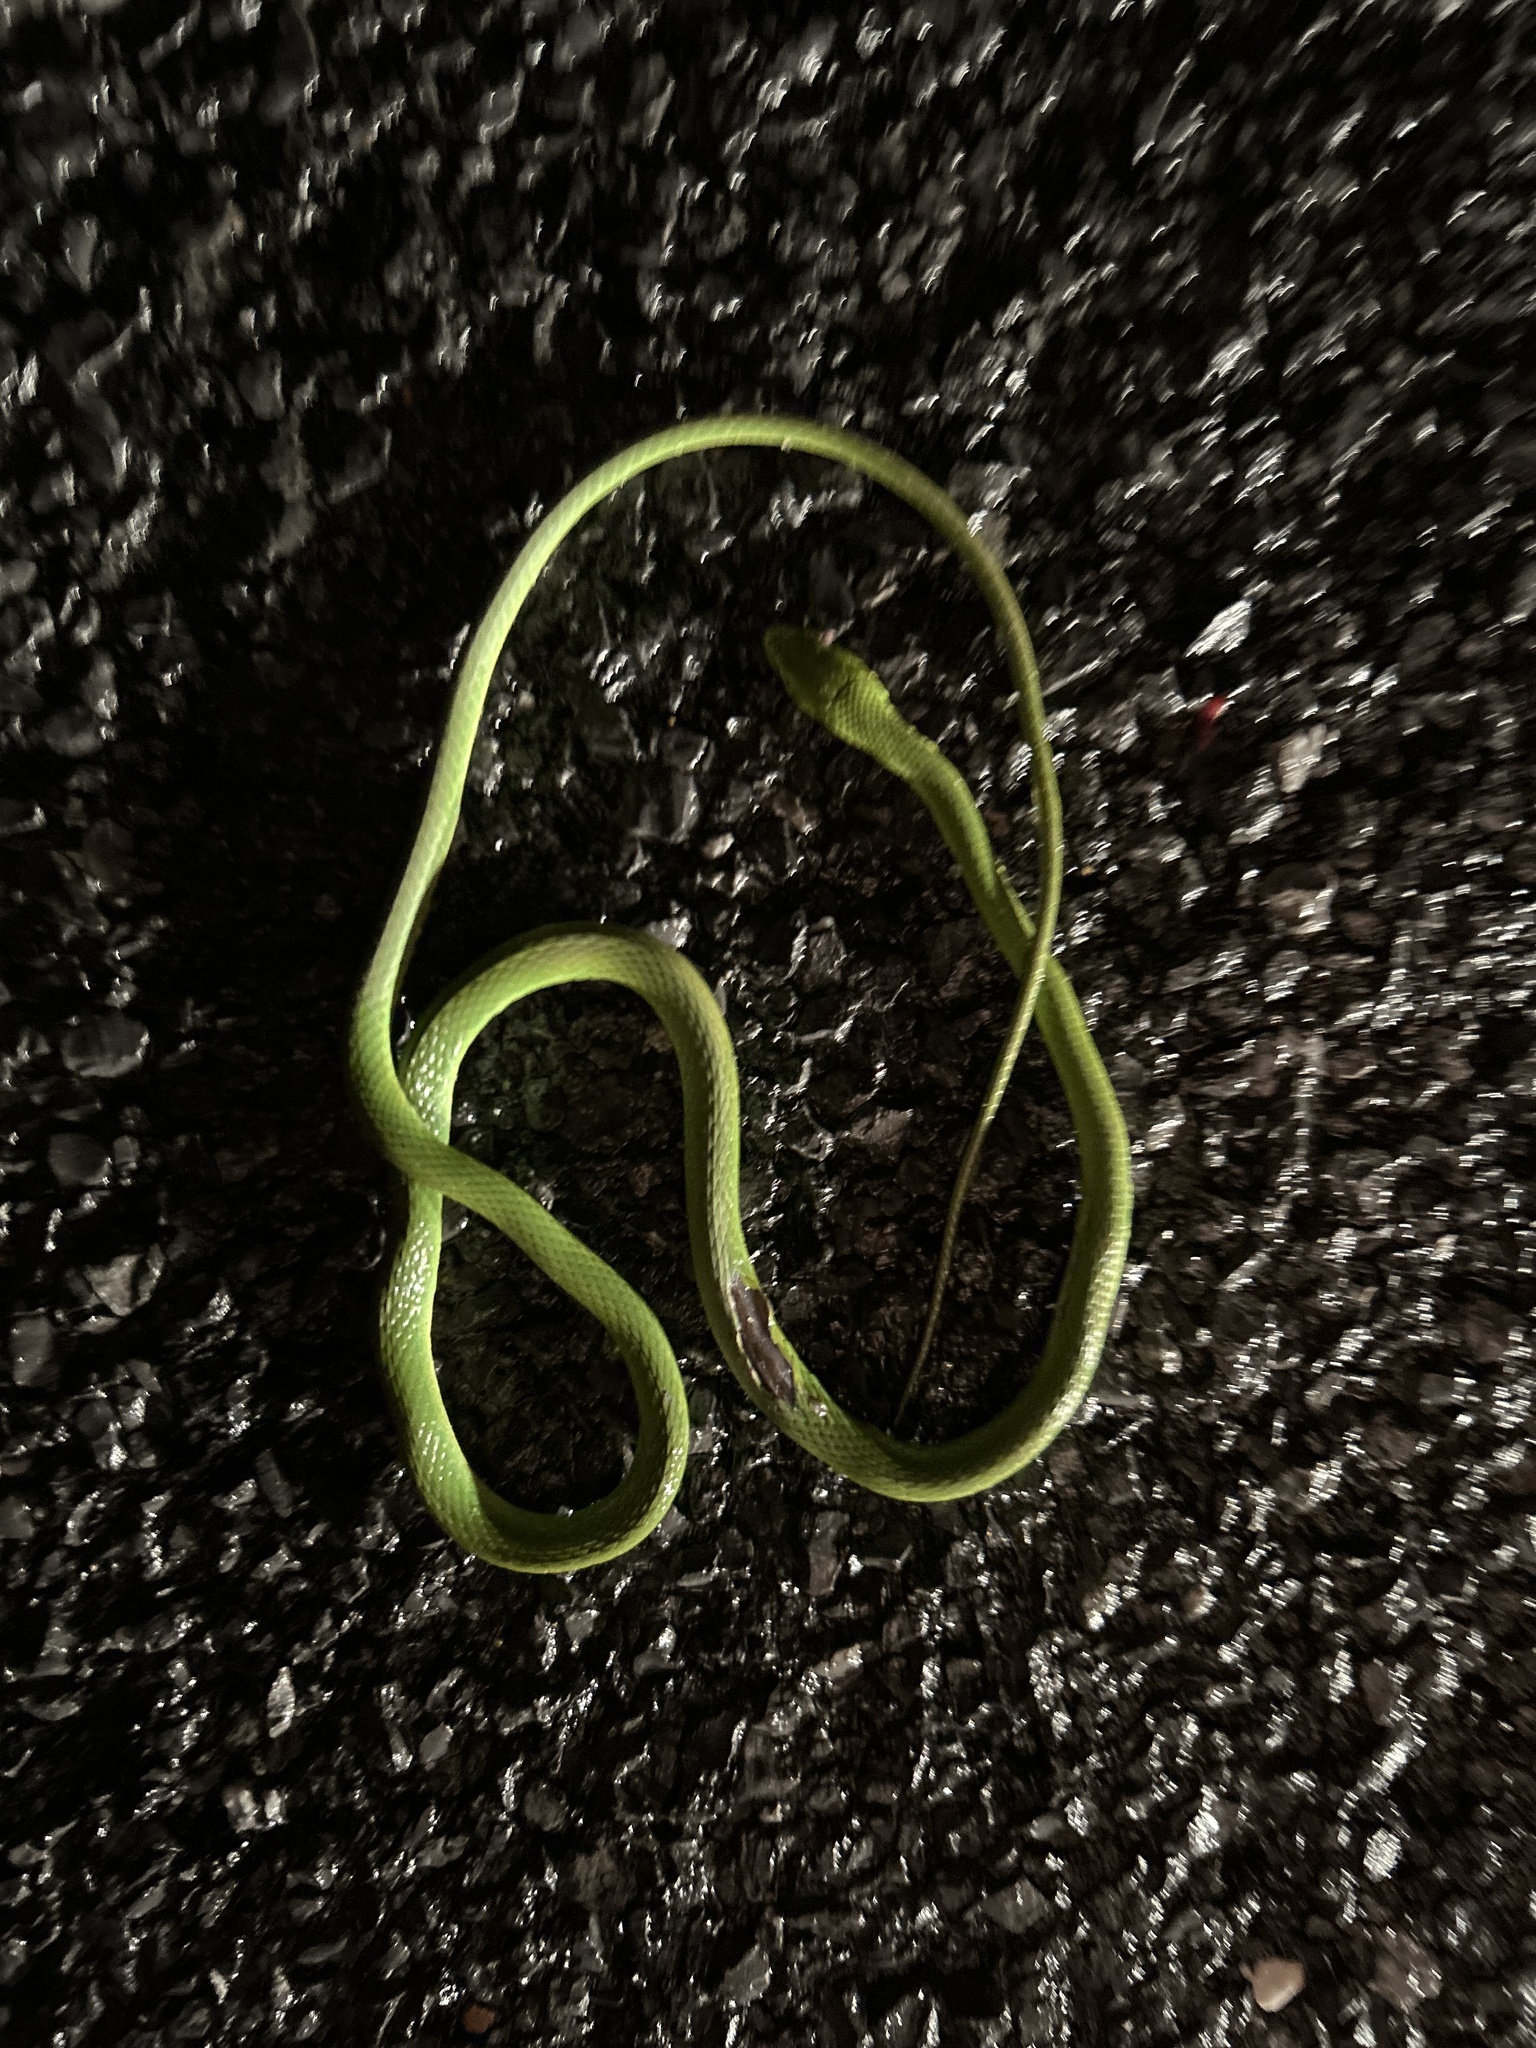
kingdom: Animalia
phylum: Chordata
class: Squamata
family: Colubridae
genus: Opheodrys
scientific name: Opheodrys aestivus
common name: Rough greensnake
